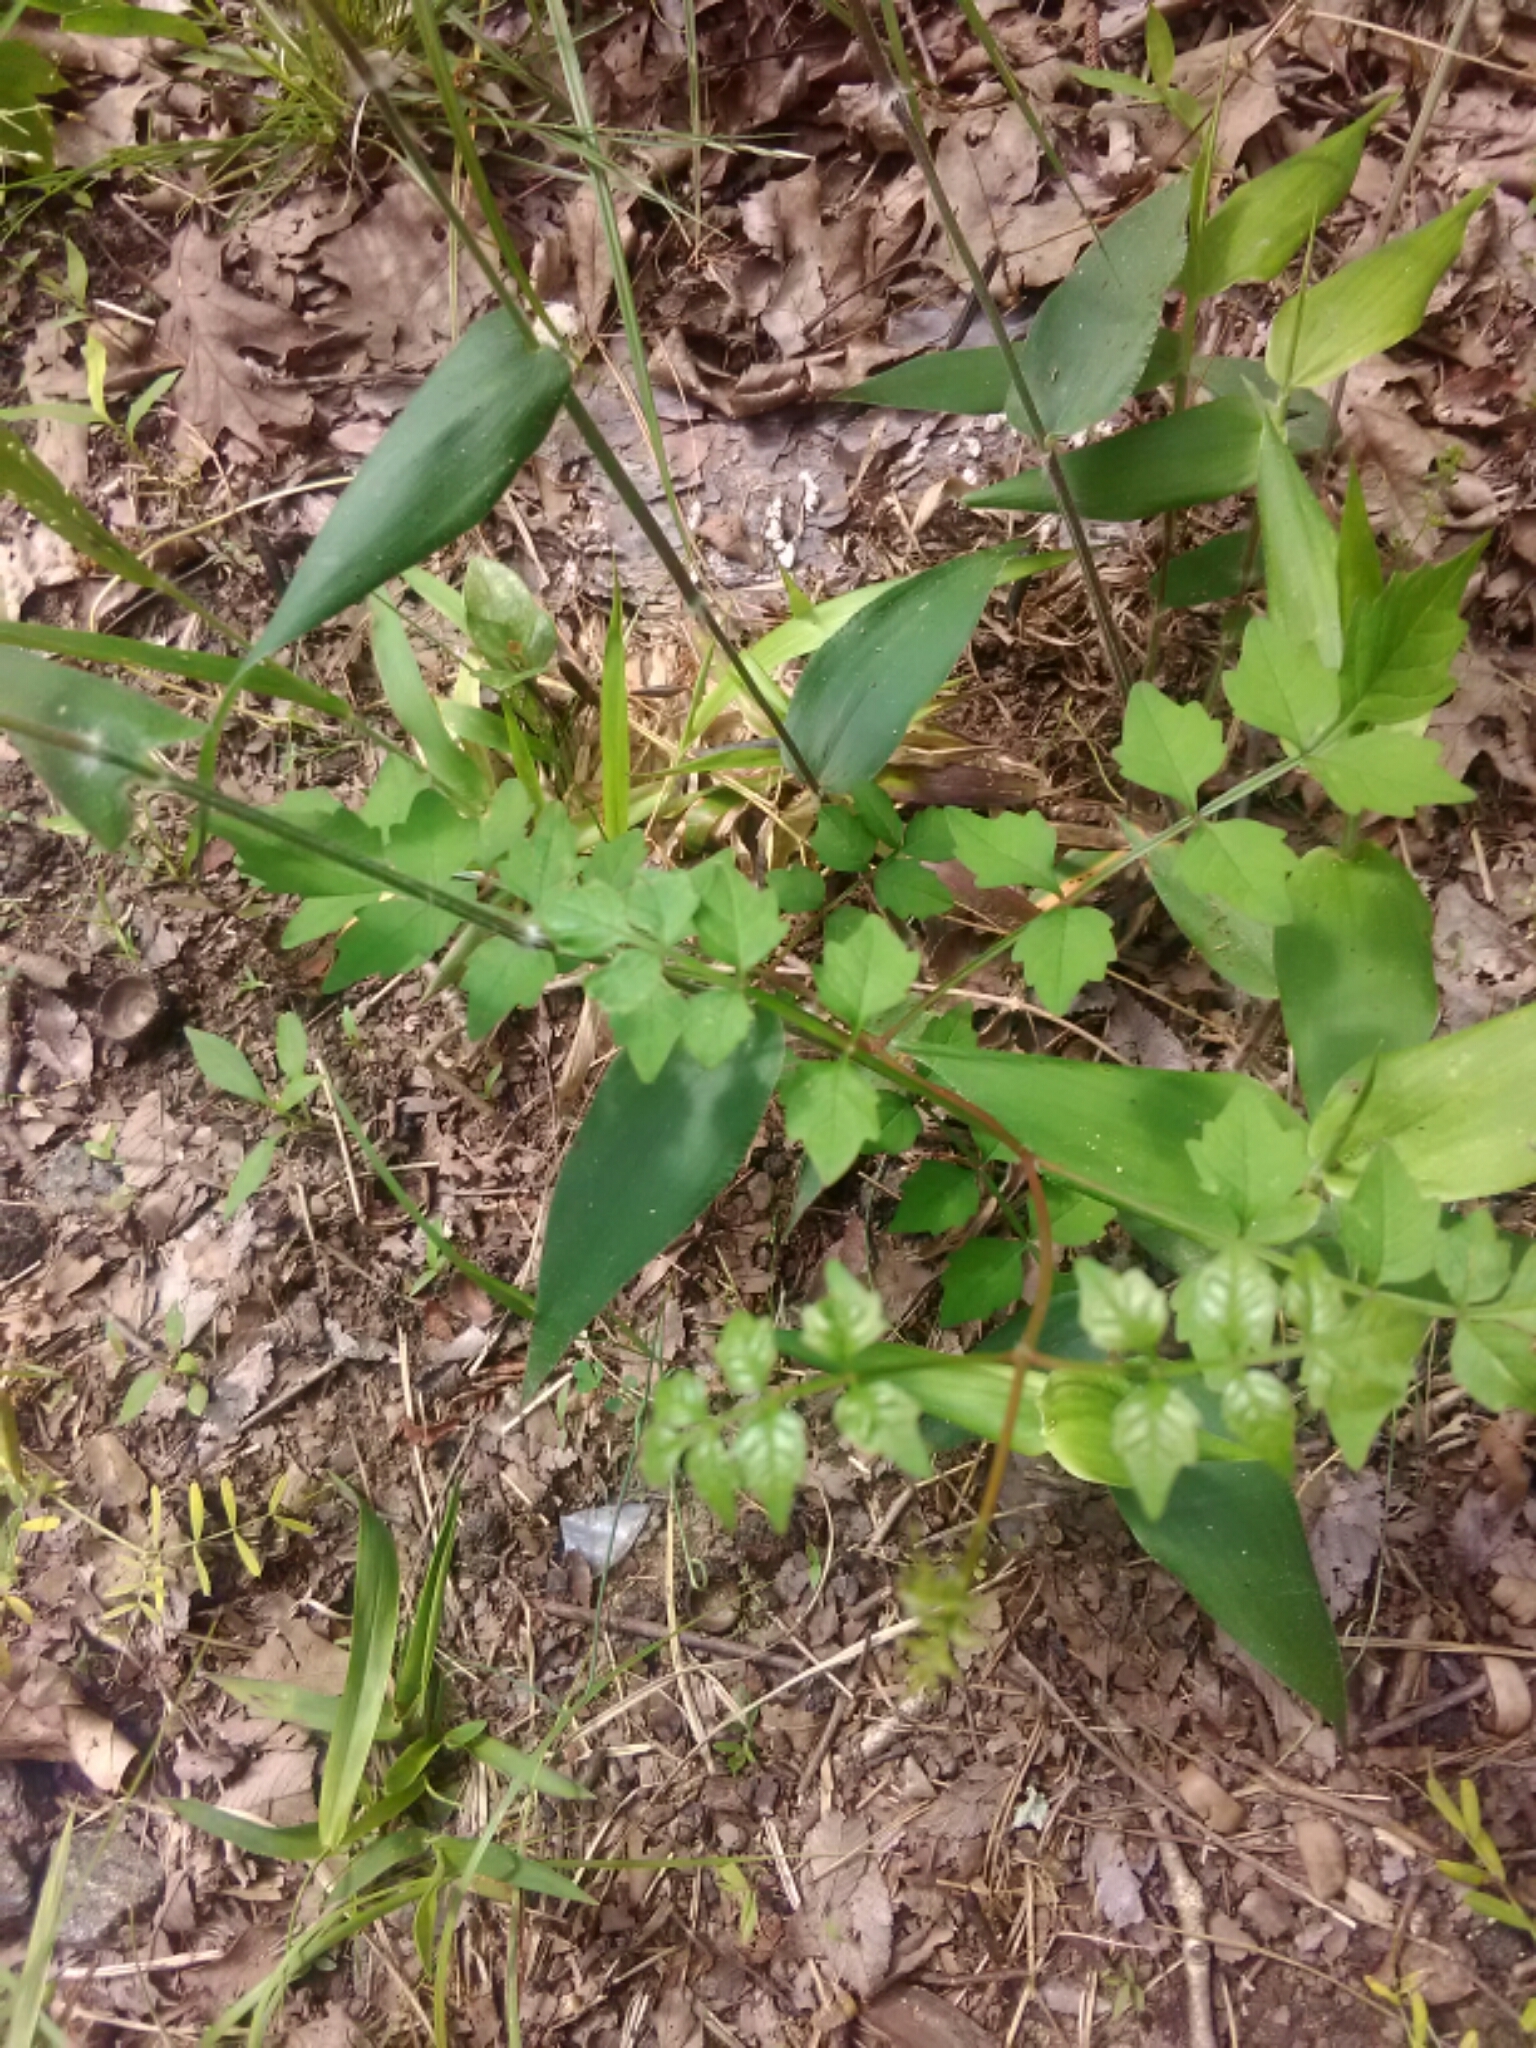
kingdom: Plantae
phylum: Tracheophyta
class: Magnoliopsida
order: Lamiales
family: Bignoniaceae
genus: Campsis
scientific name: Campsis radicans
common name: Trumpet-creeper
